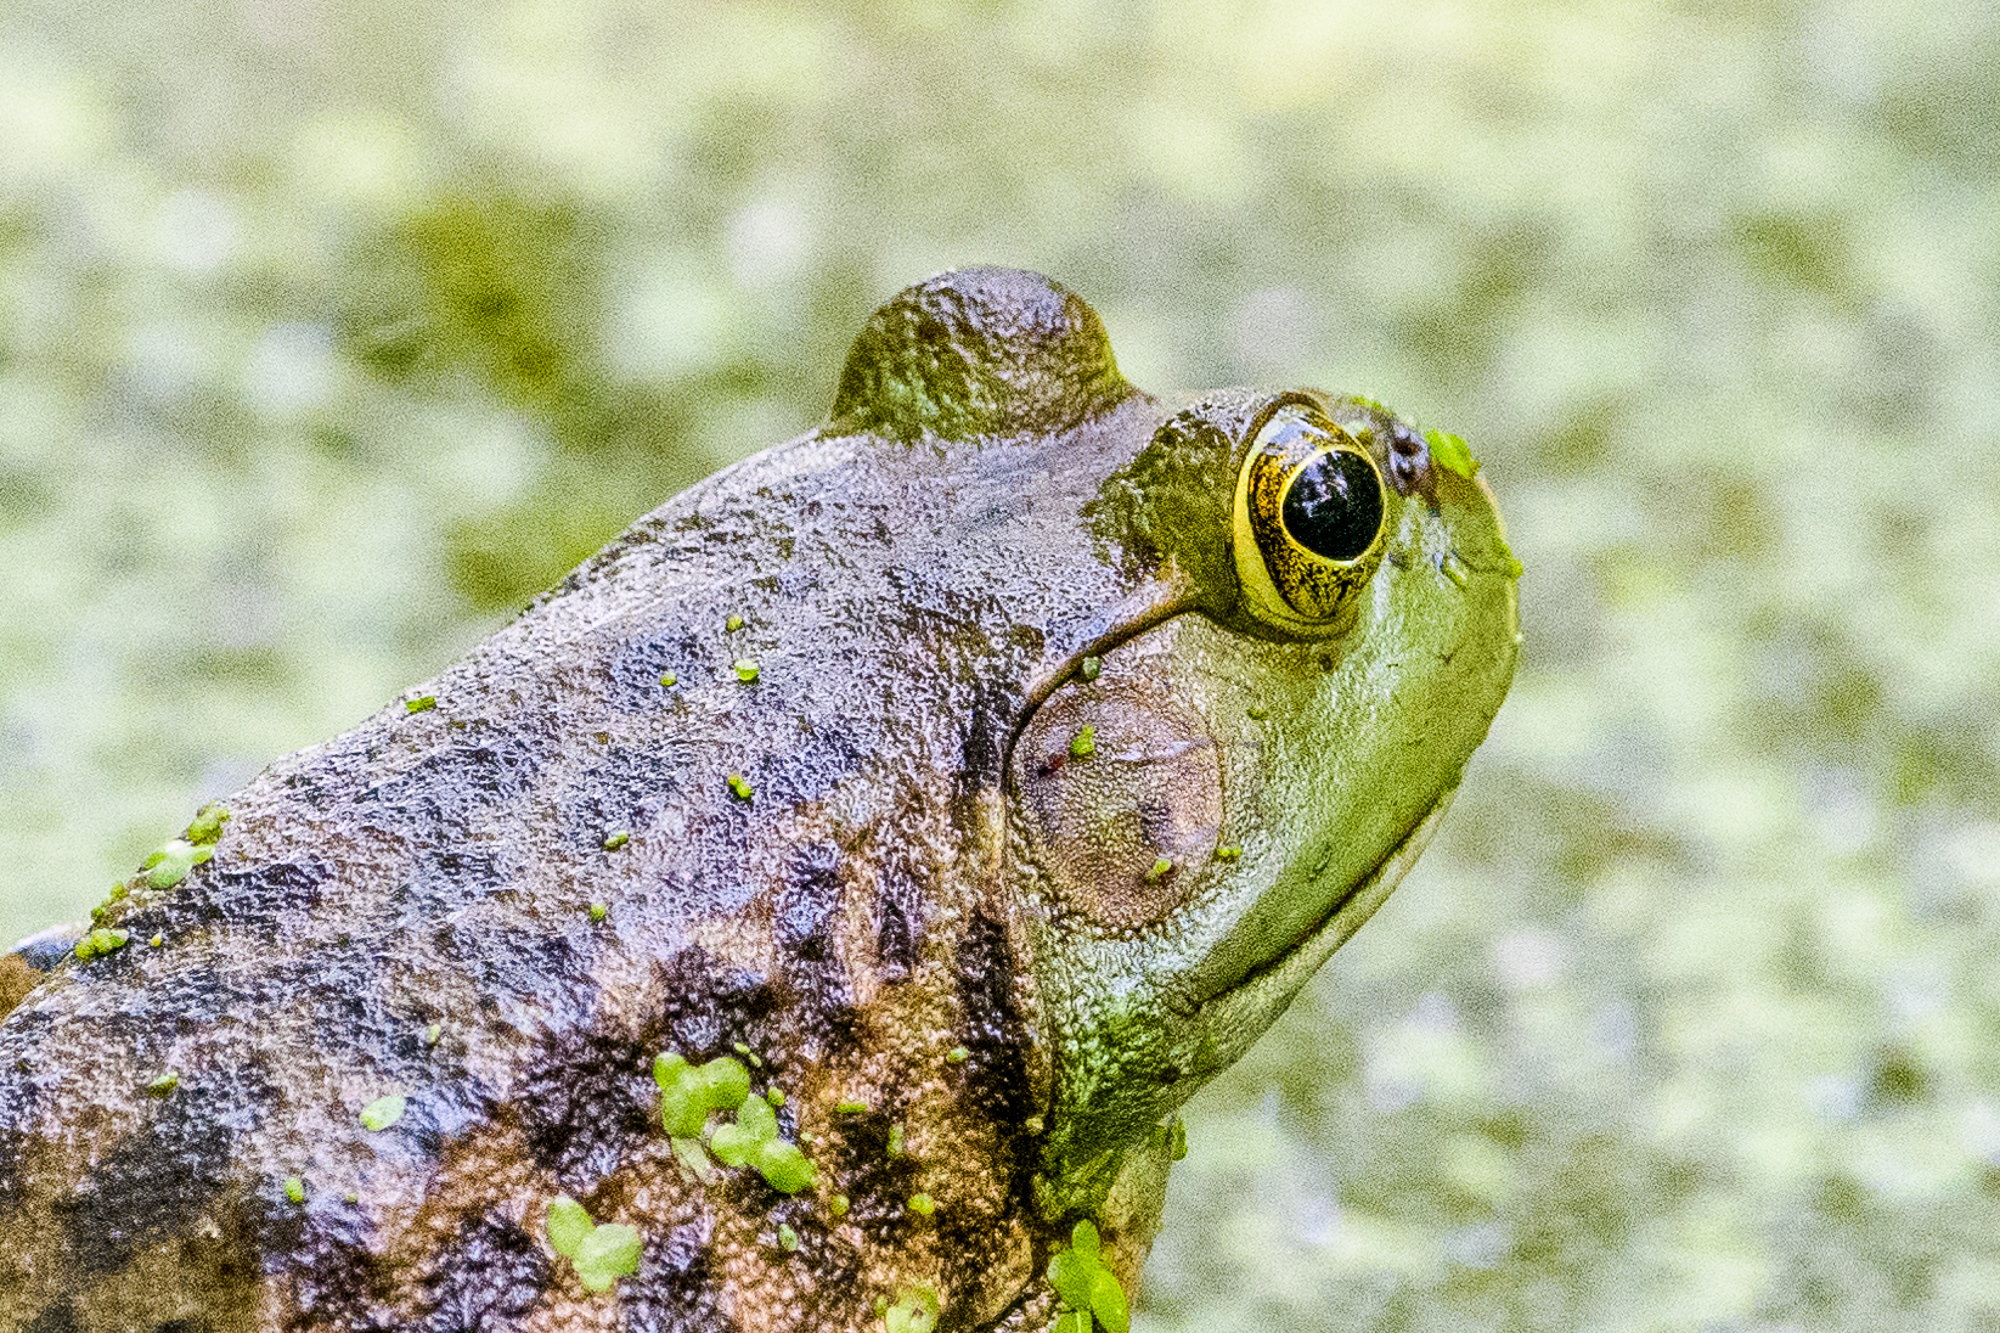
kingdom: Animalia
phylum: Chordata
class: Amphibia
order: Anura
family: Ranidae
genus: Lithobates
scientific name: Lithobates catesbeianus
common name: American bullfrog
